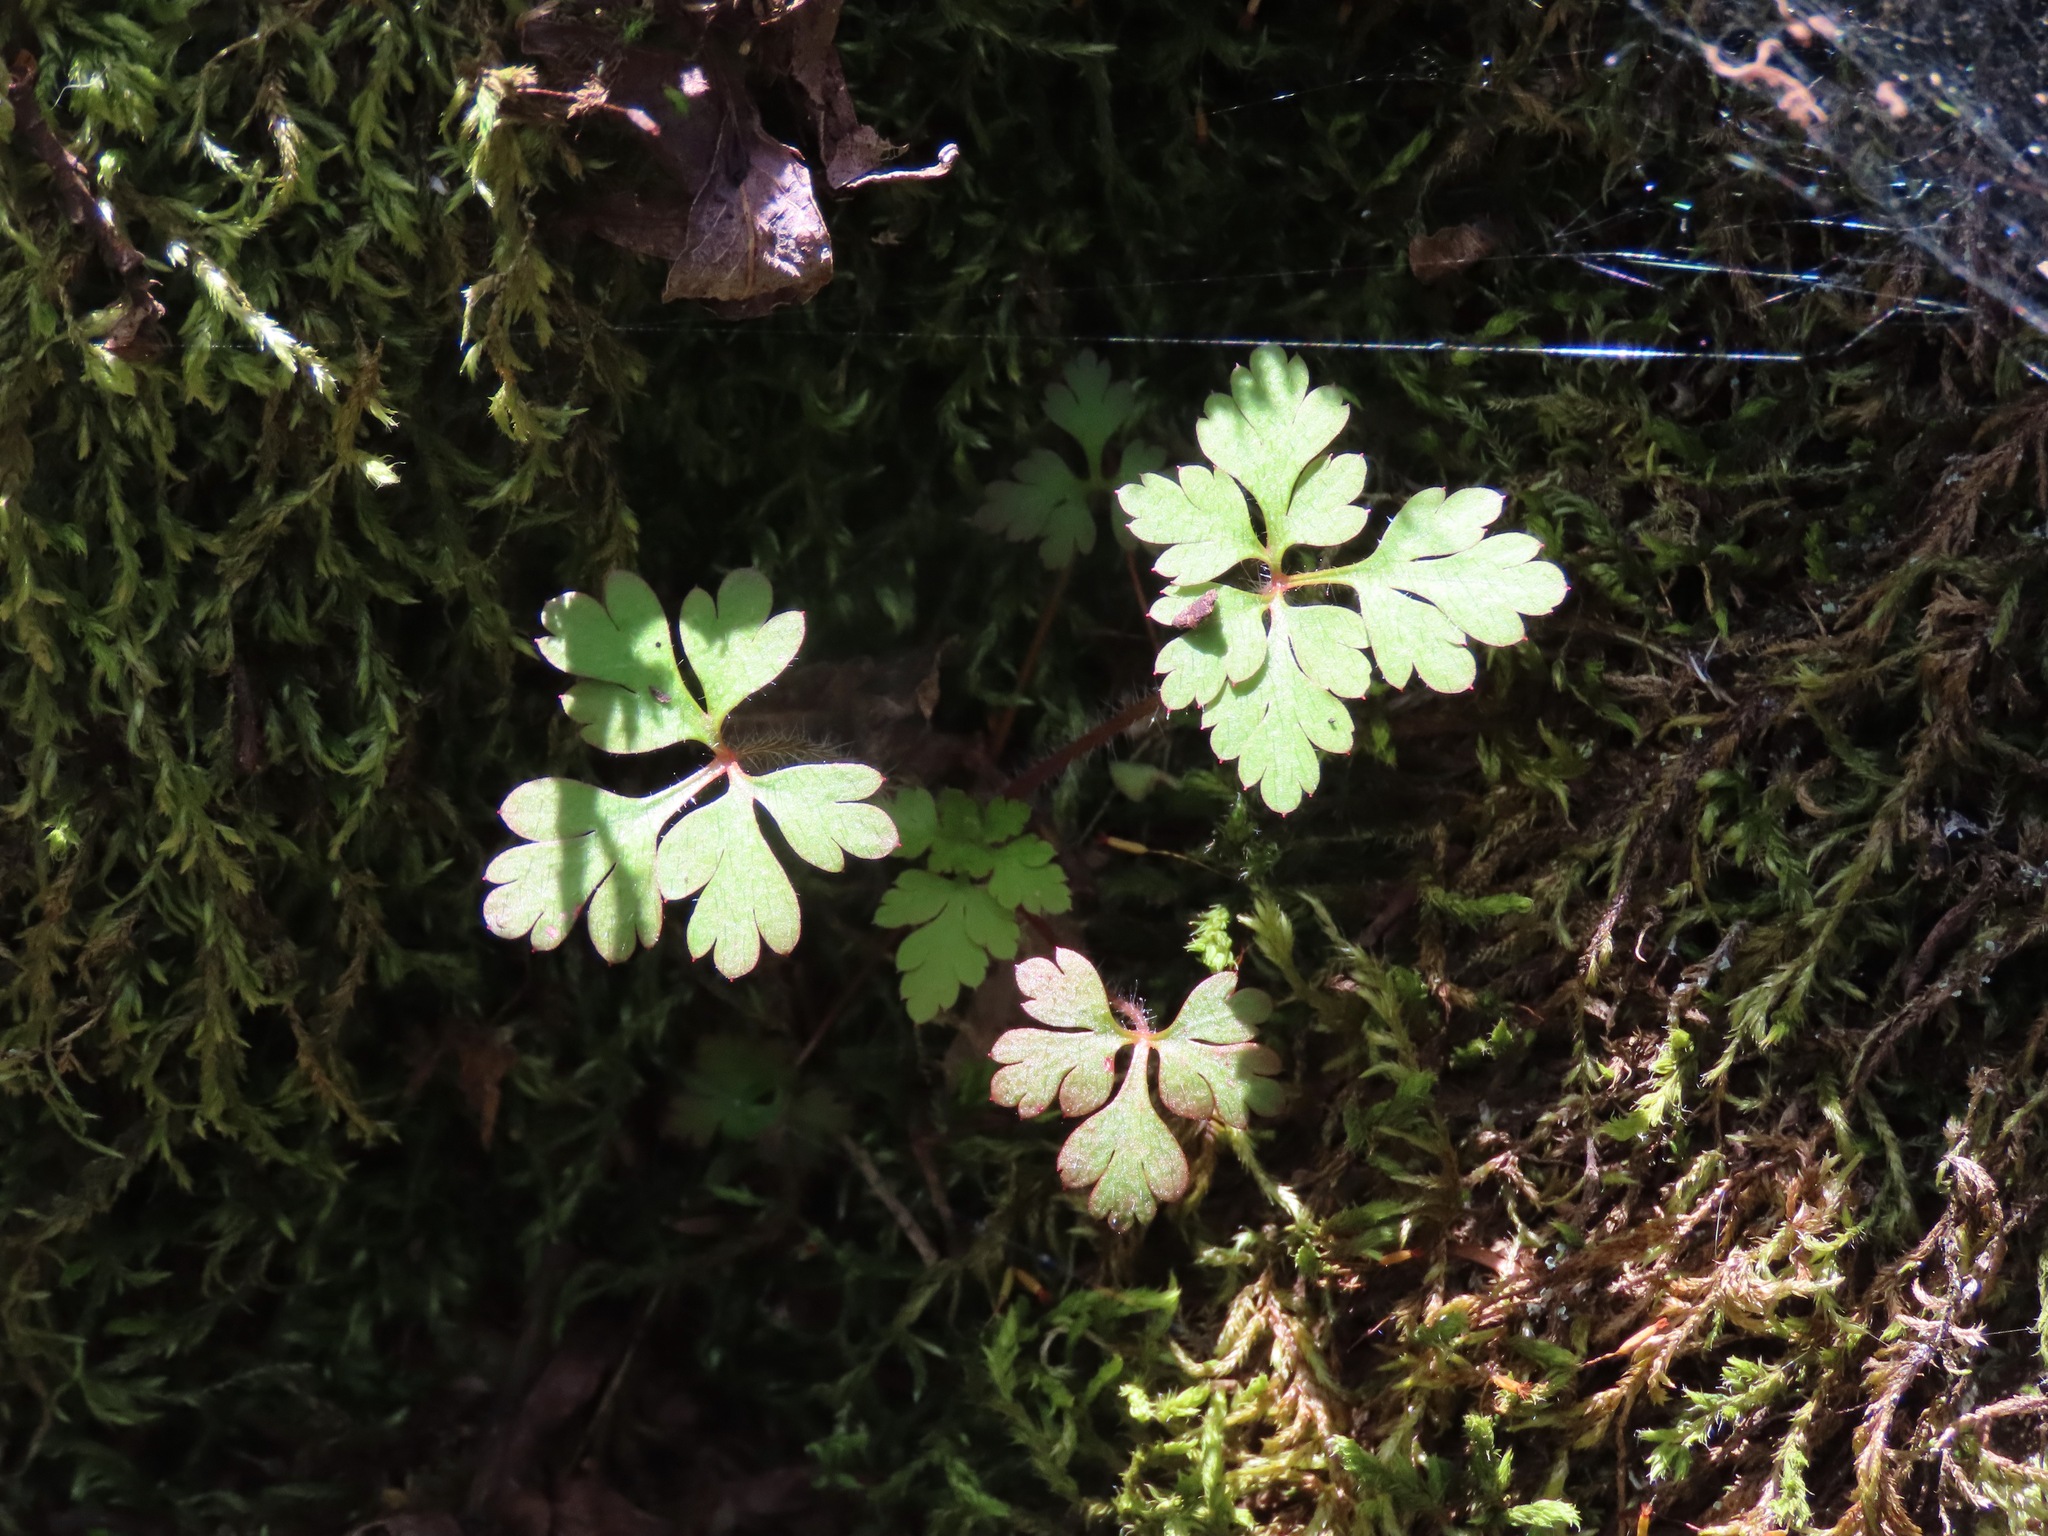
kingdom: Plantae
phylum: Tracheophyta
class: Magnoliopsida
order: Geraniales
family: Geraniaceae
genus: Geranium
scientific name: Geranium robertianum
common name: Herb-robert
